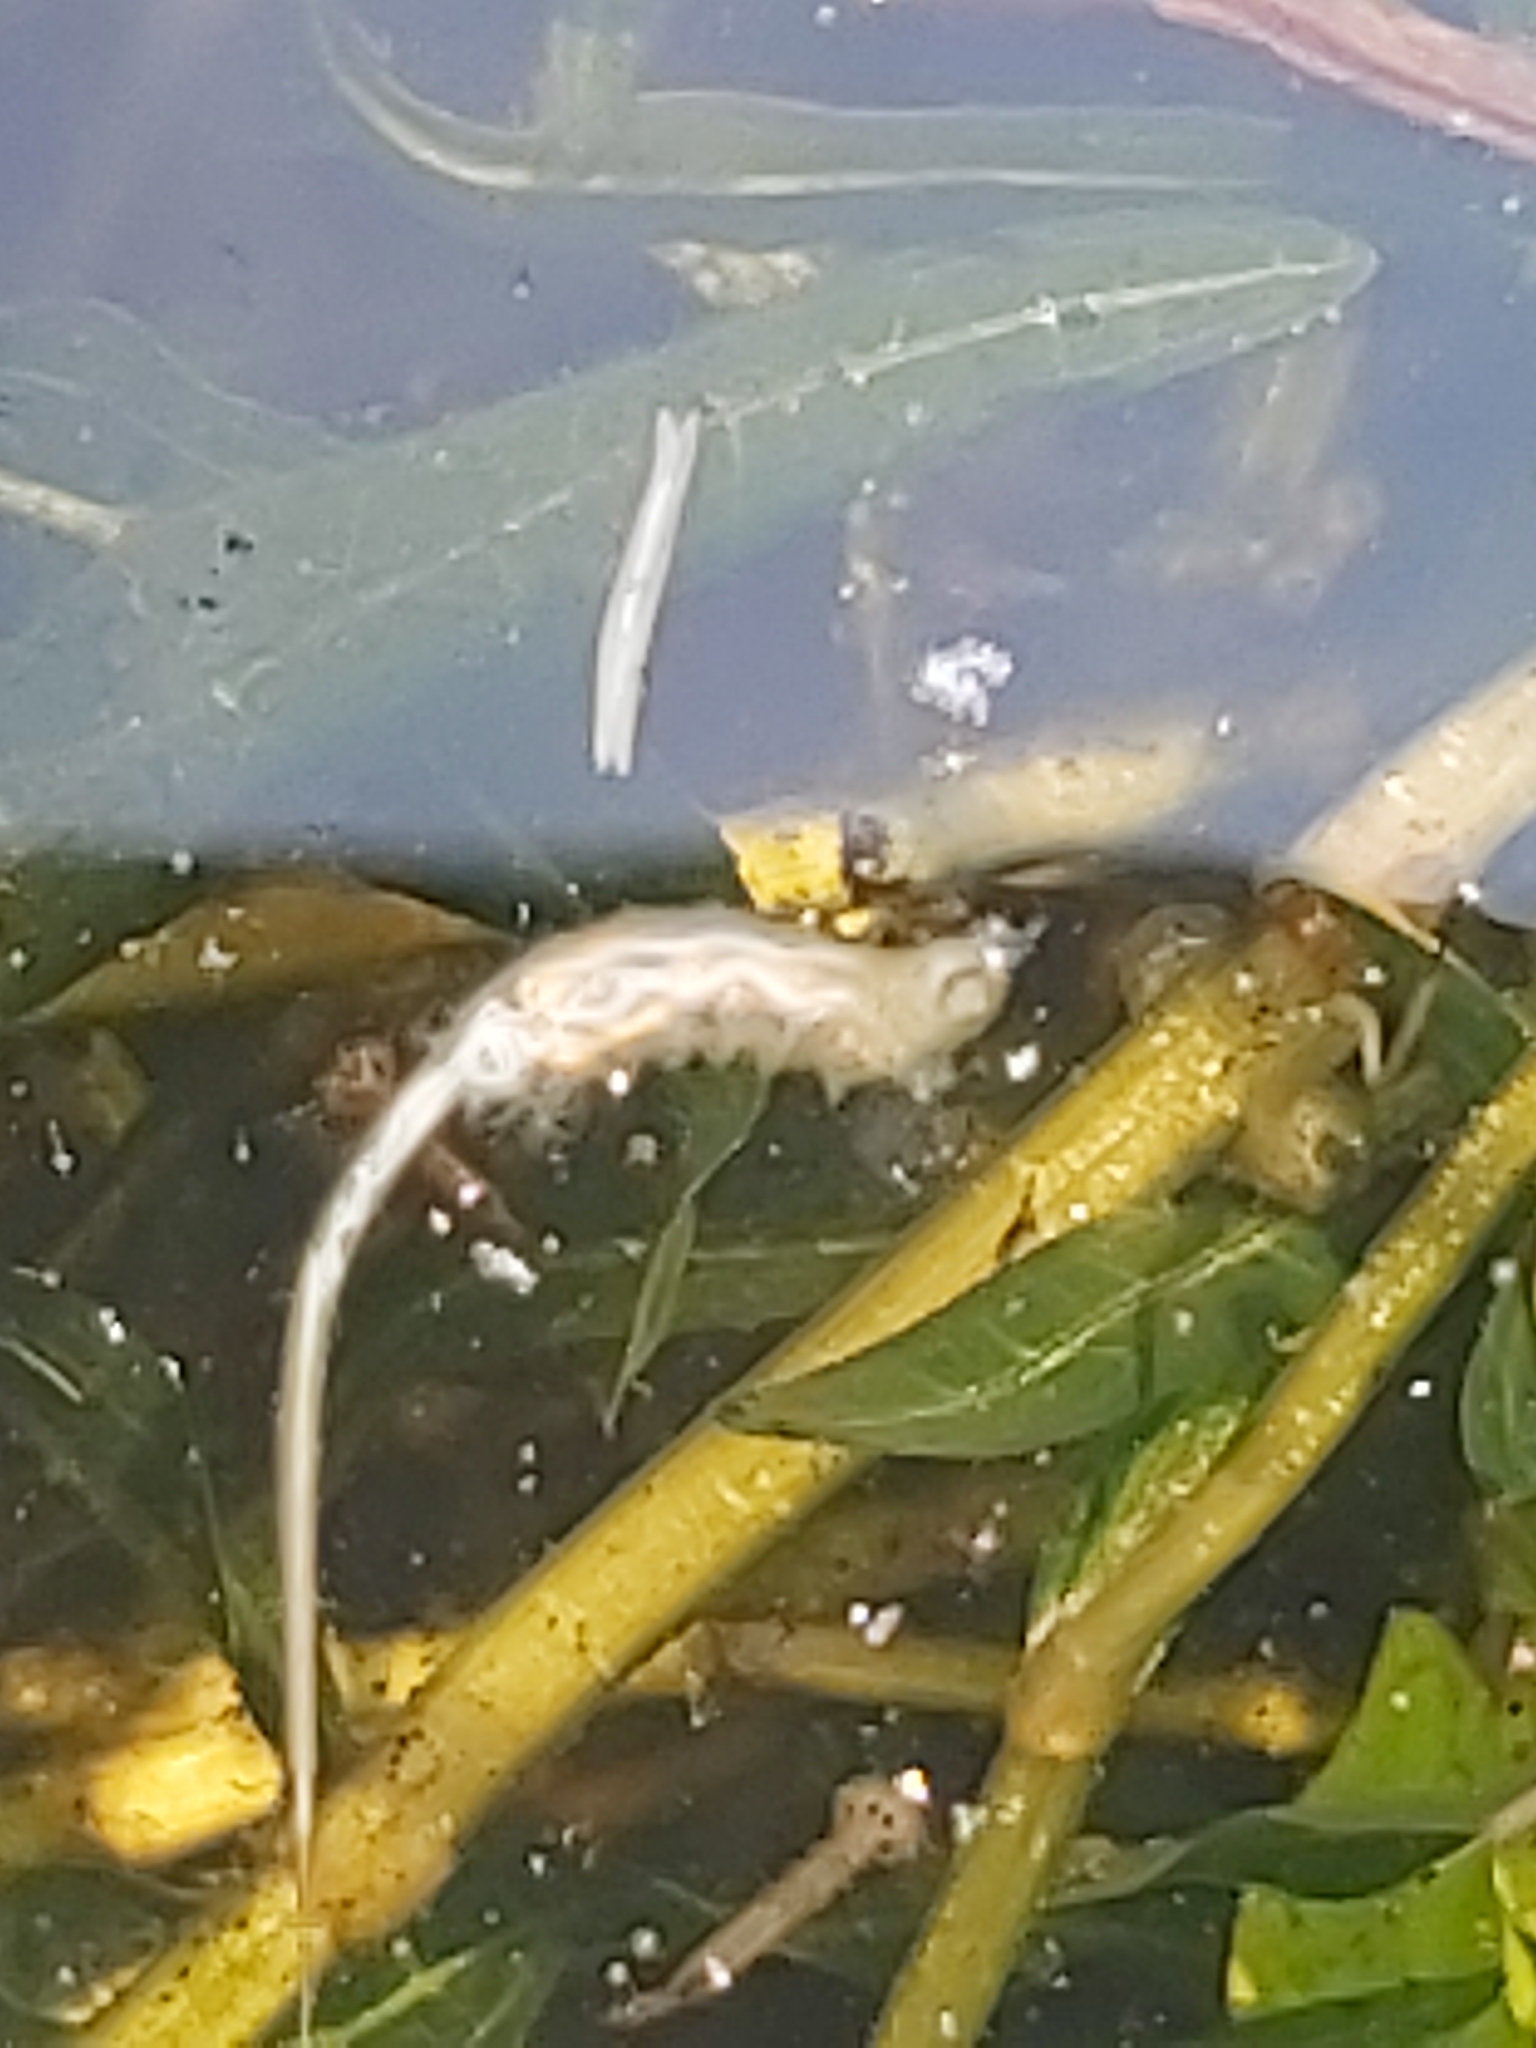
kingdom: Animalia
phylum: Arthropoda
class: Insecta
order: Diptera
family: Syrphidae
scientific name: Syrphidae
